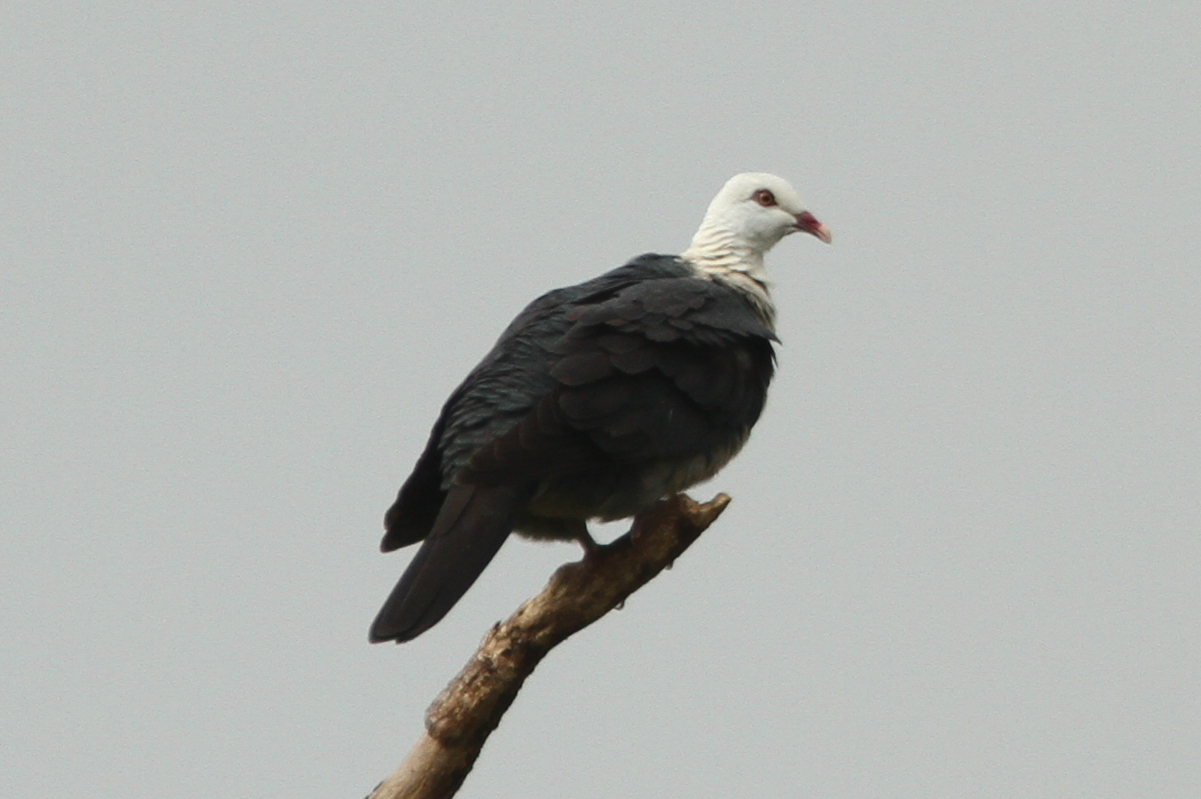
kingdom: Animalia
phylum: Chordata
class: Aves
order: Columbiformes
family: Columbidae
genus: Columba
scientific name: Columba leucomela
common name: White-headed pigeon
